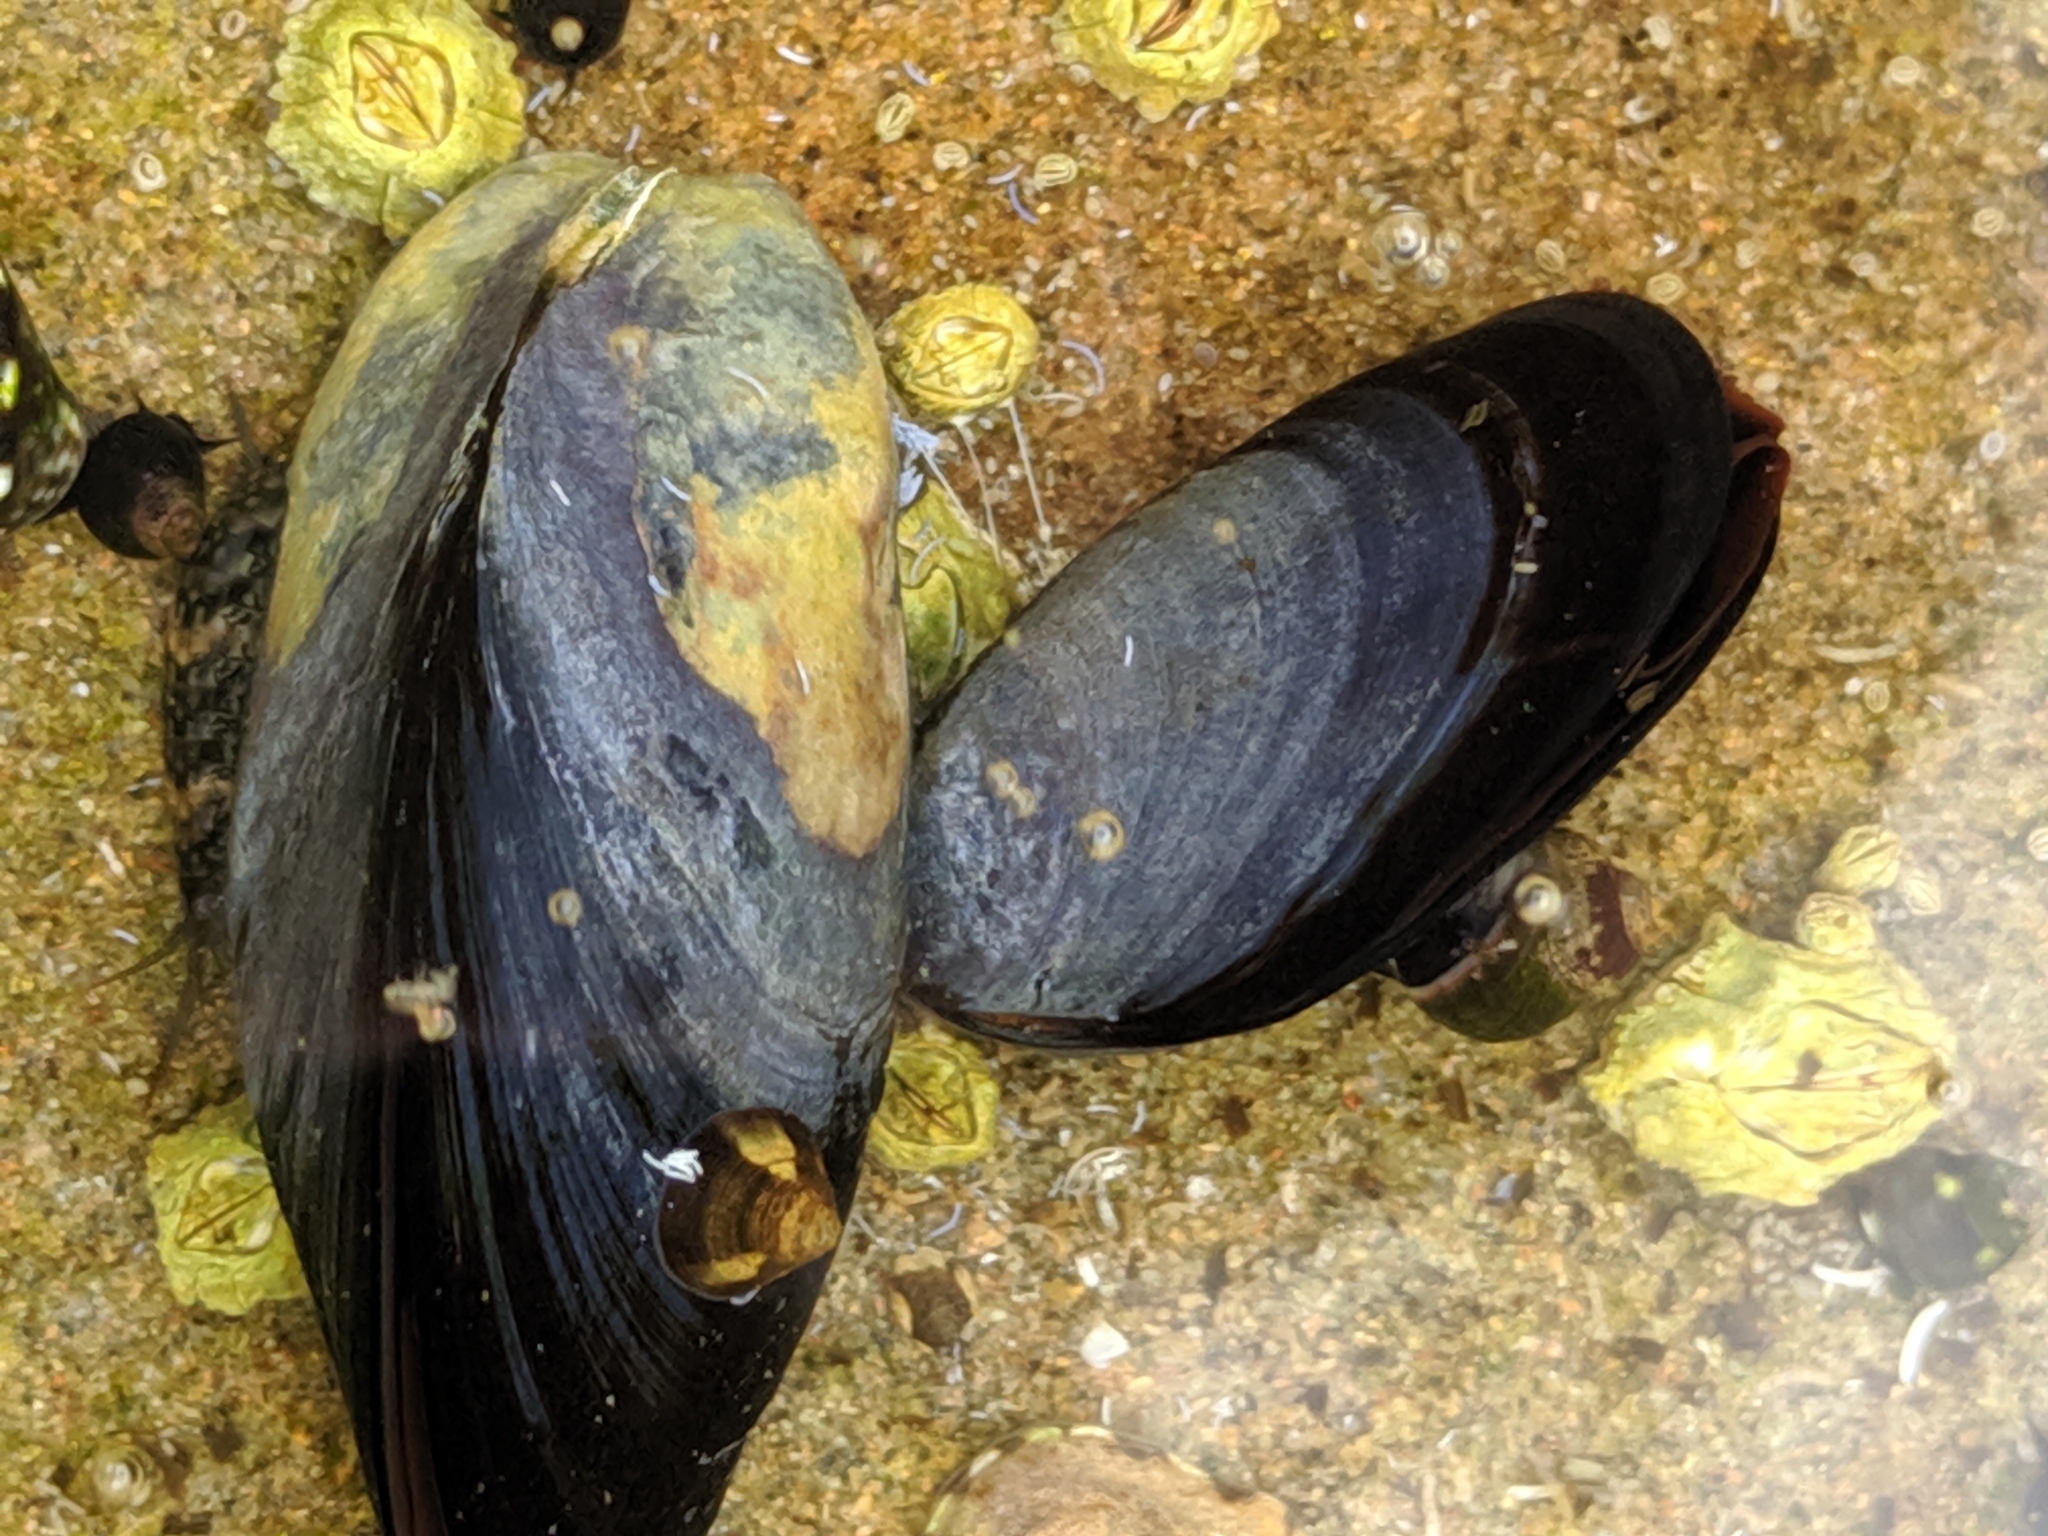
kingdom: Animalia
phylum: Mollusca
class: Bivalvia
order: Mytilida
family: Mytilidae
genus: Mytilus
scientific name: Mytilus
